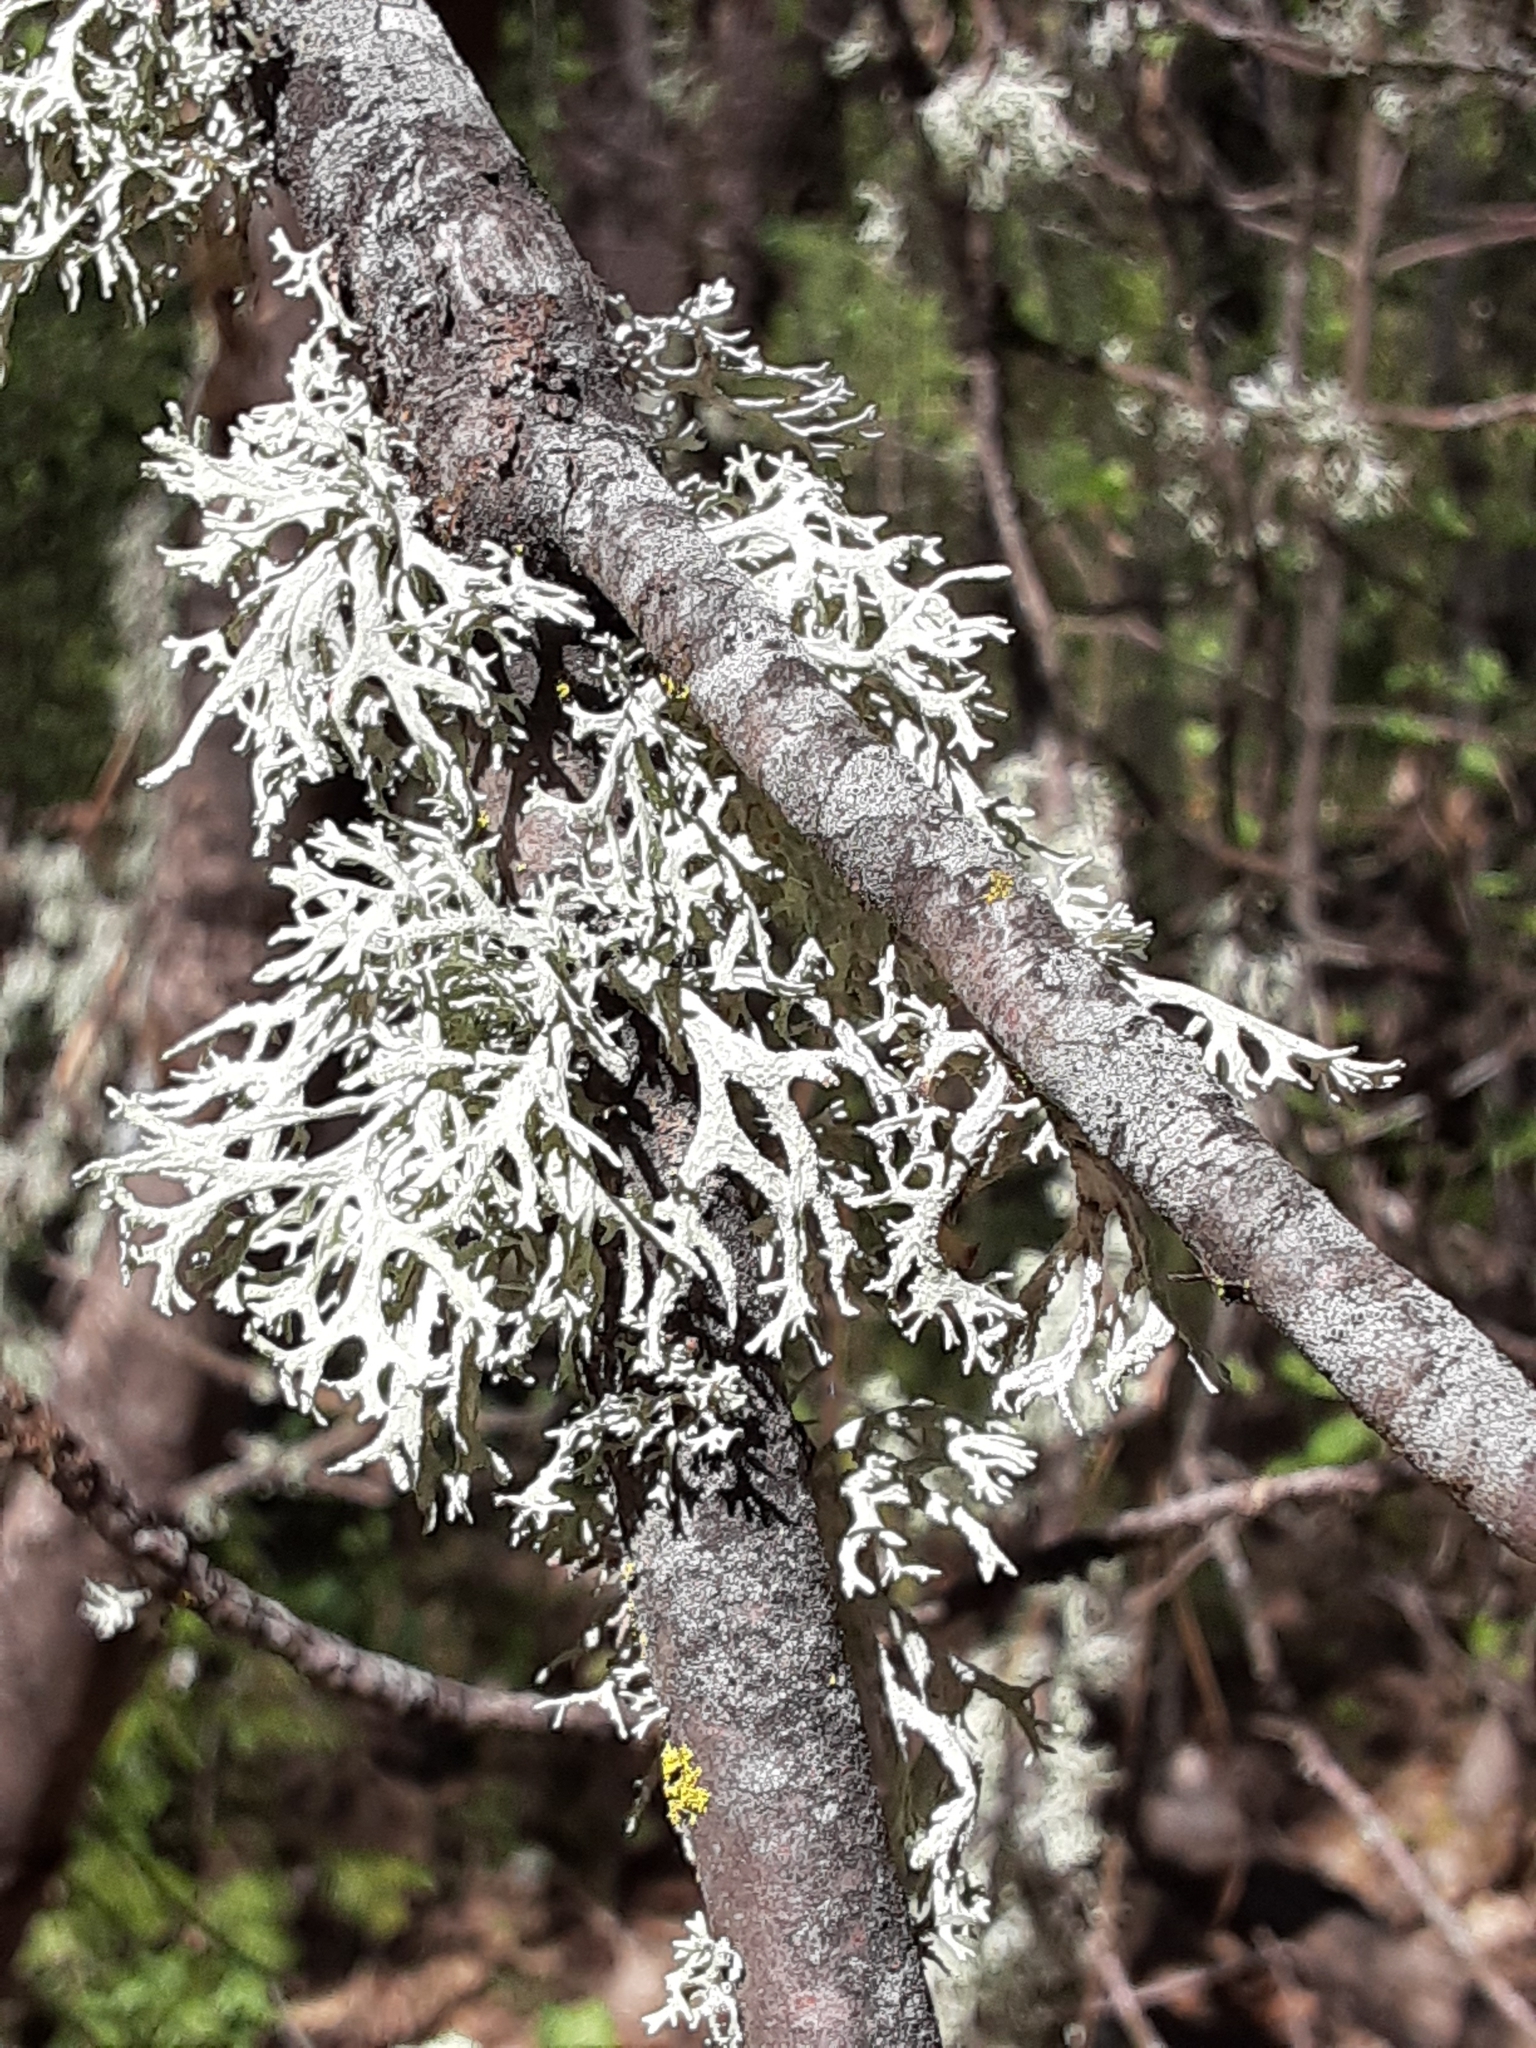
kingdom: Fungi
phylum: Ascomycota
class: Lecanoromycetes
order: Lecanorales
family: Parmeliaceae
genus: Evernia
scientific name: Evernia prunastri
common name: Oak moss
